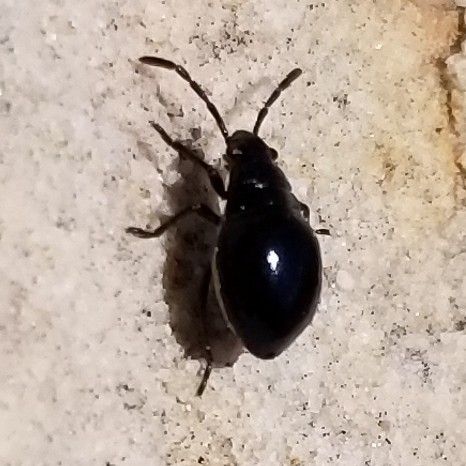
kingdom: Animalia
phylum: Arthropoda
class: Insecta
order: Hemiptera
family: Largidae
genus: Largus
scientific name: Largus
